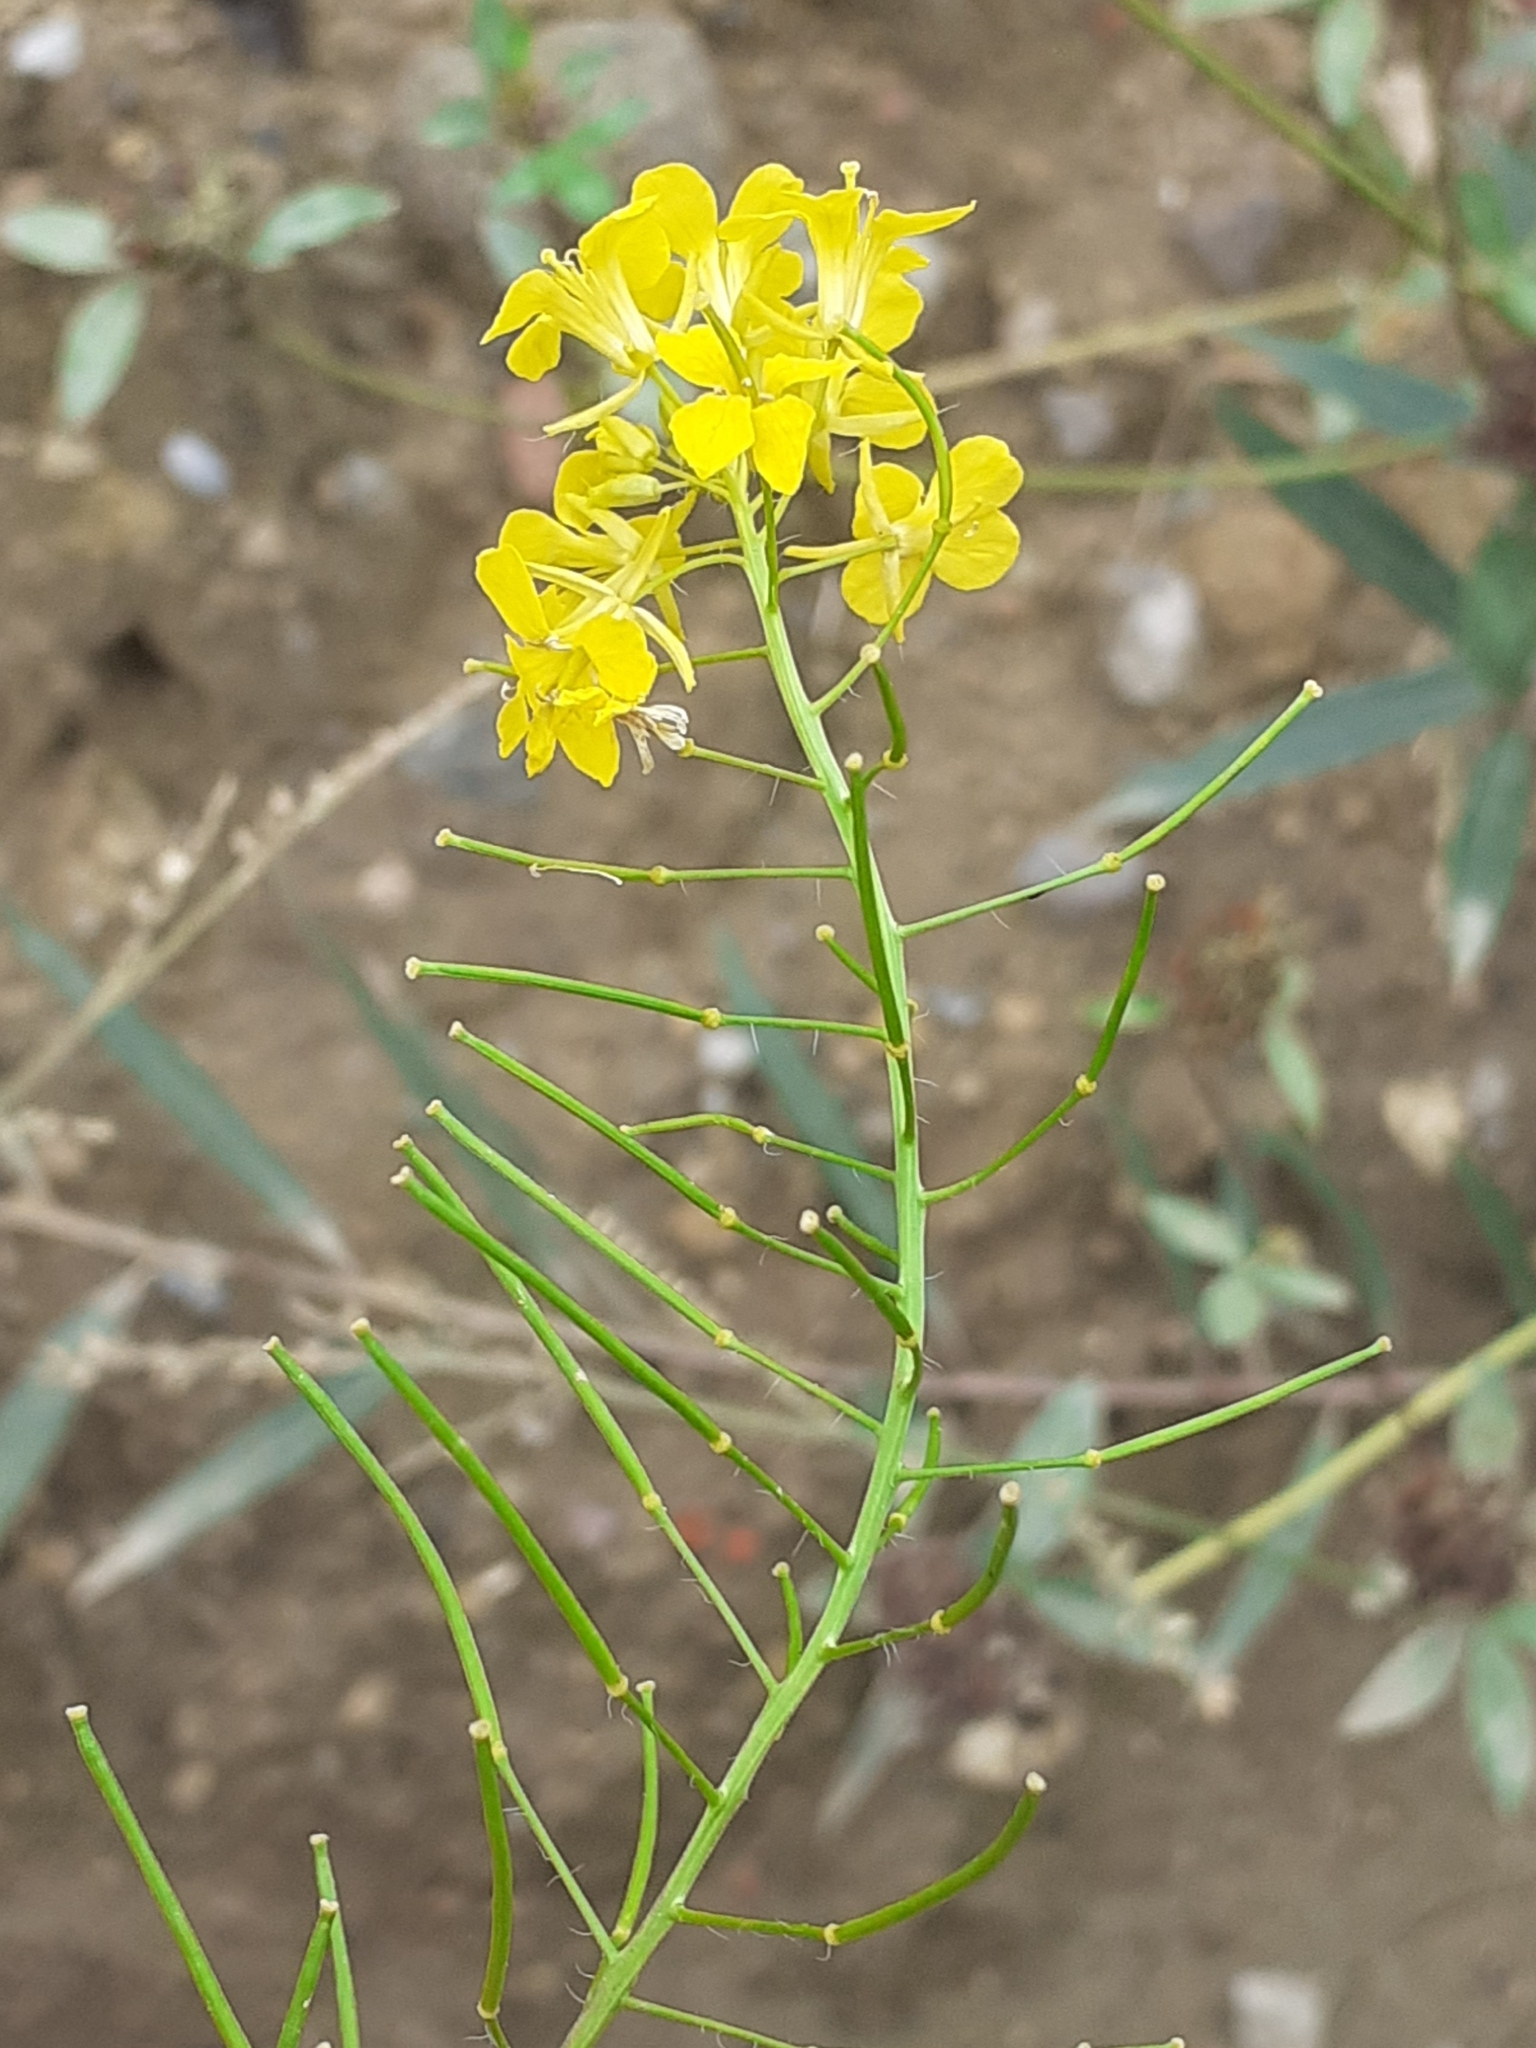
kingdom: Plantae
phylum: Tracheophyta
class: Magnoliopsida
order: Brassicales
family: Brassicaceae
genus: Sisymbrium
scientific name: Sisymbrium loeselii
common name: False london-rocket
